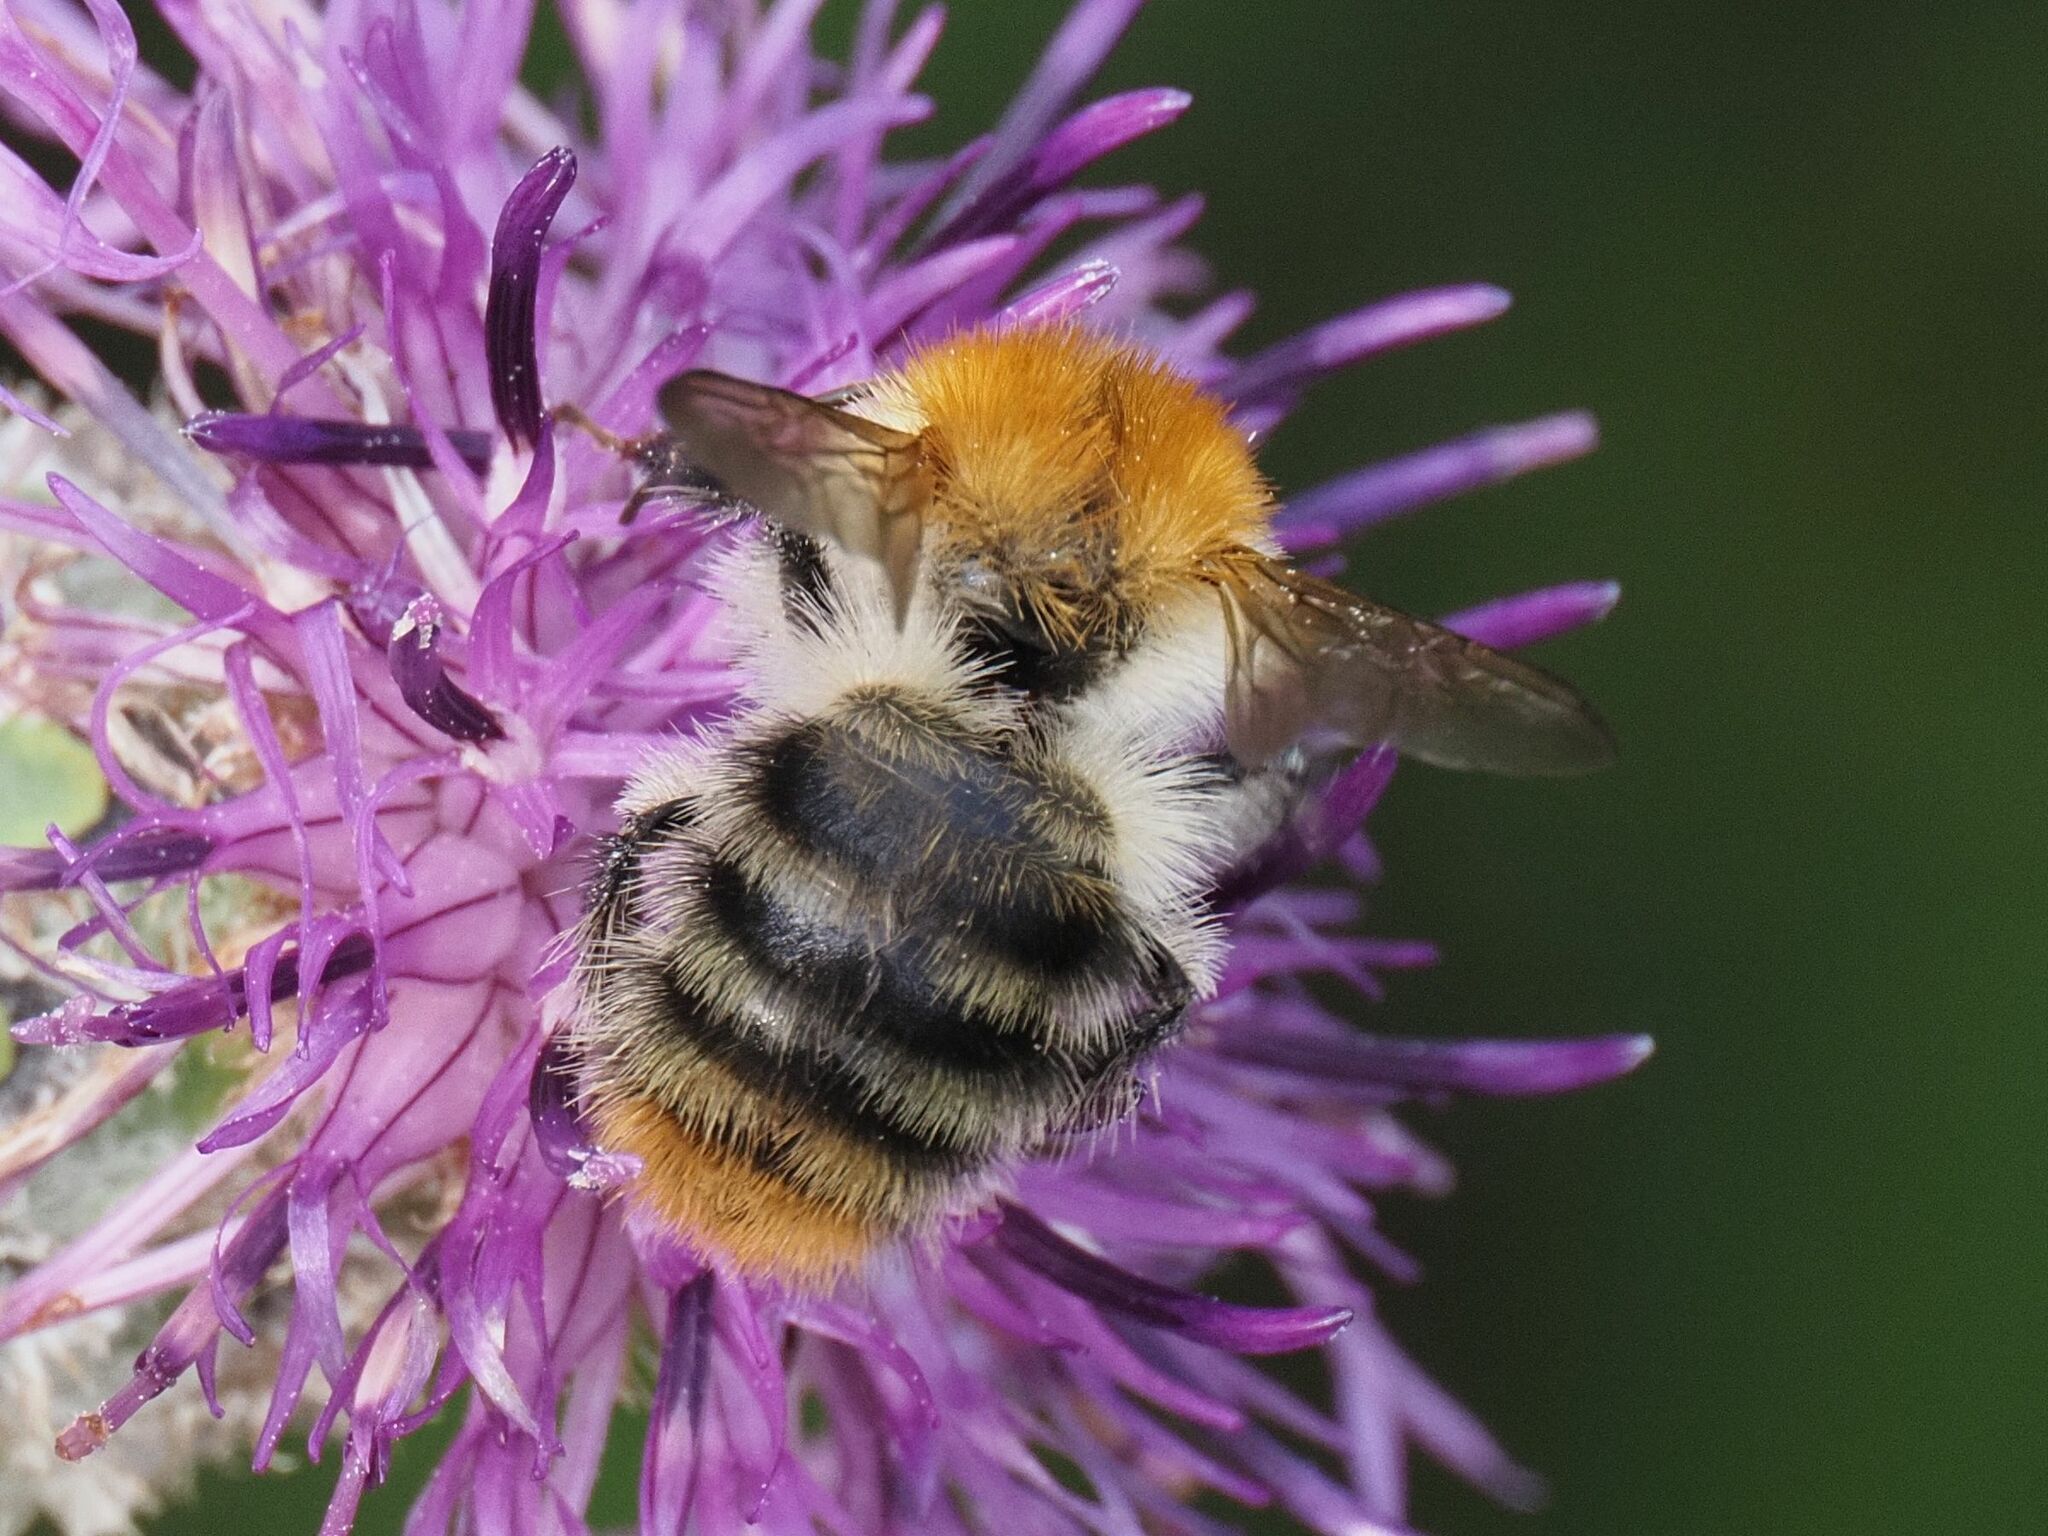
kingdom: Animalia
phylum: Arthropoda
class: Insecta
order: Hymenoptera
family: Apidae
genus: Bombus
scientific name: Bombus pascuorum
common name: Common carder bee
